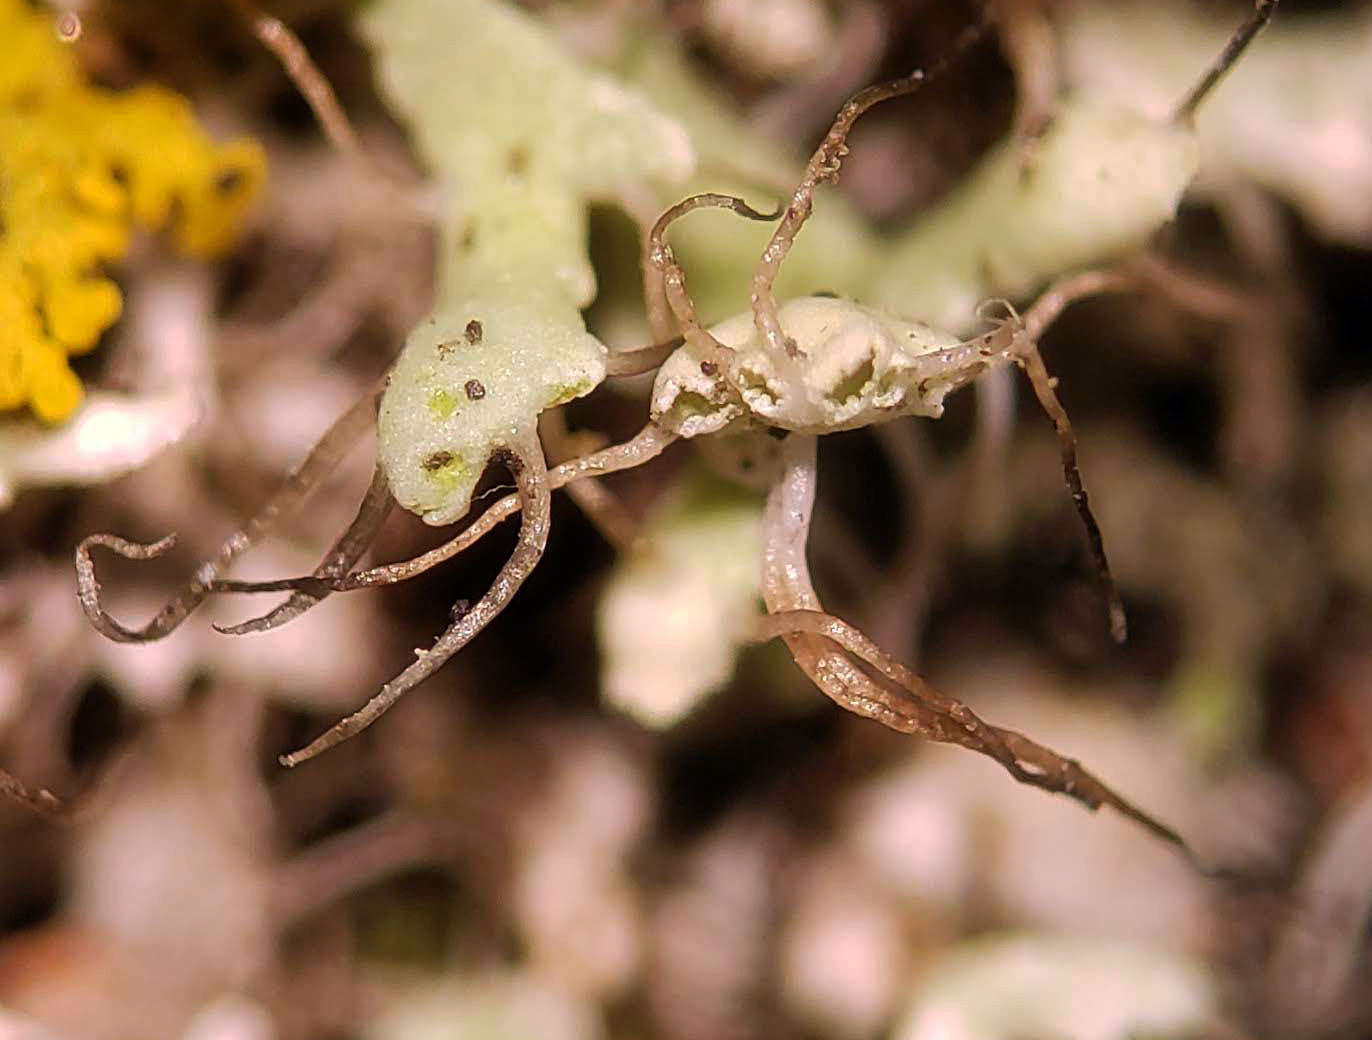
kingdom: Fungi
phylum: Ascomycota
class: Lecanoromycetes
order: Caliciales
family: Physciaceae
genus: Physcia
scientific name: Physcia adscendens
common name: Hooded rosette lichen
